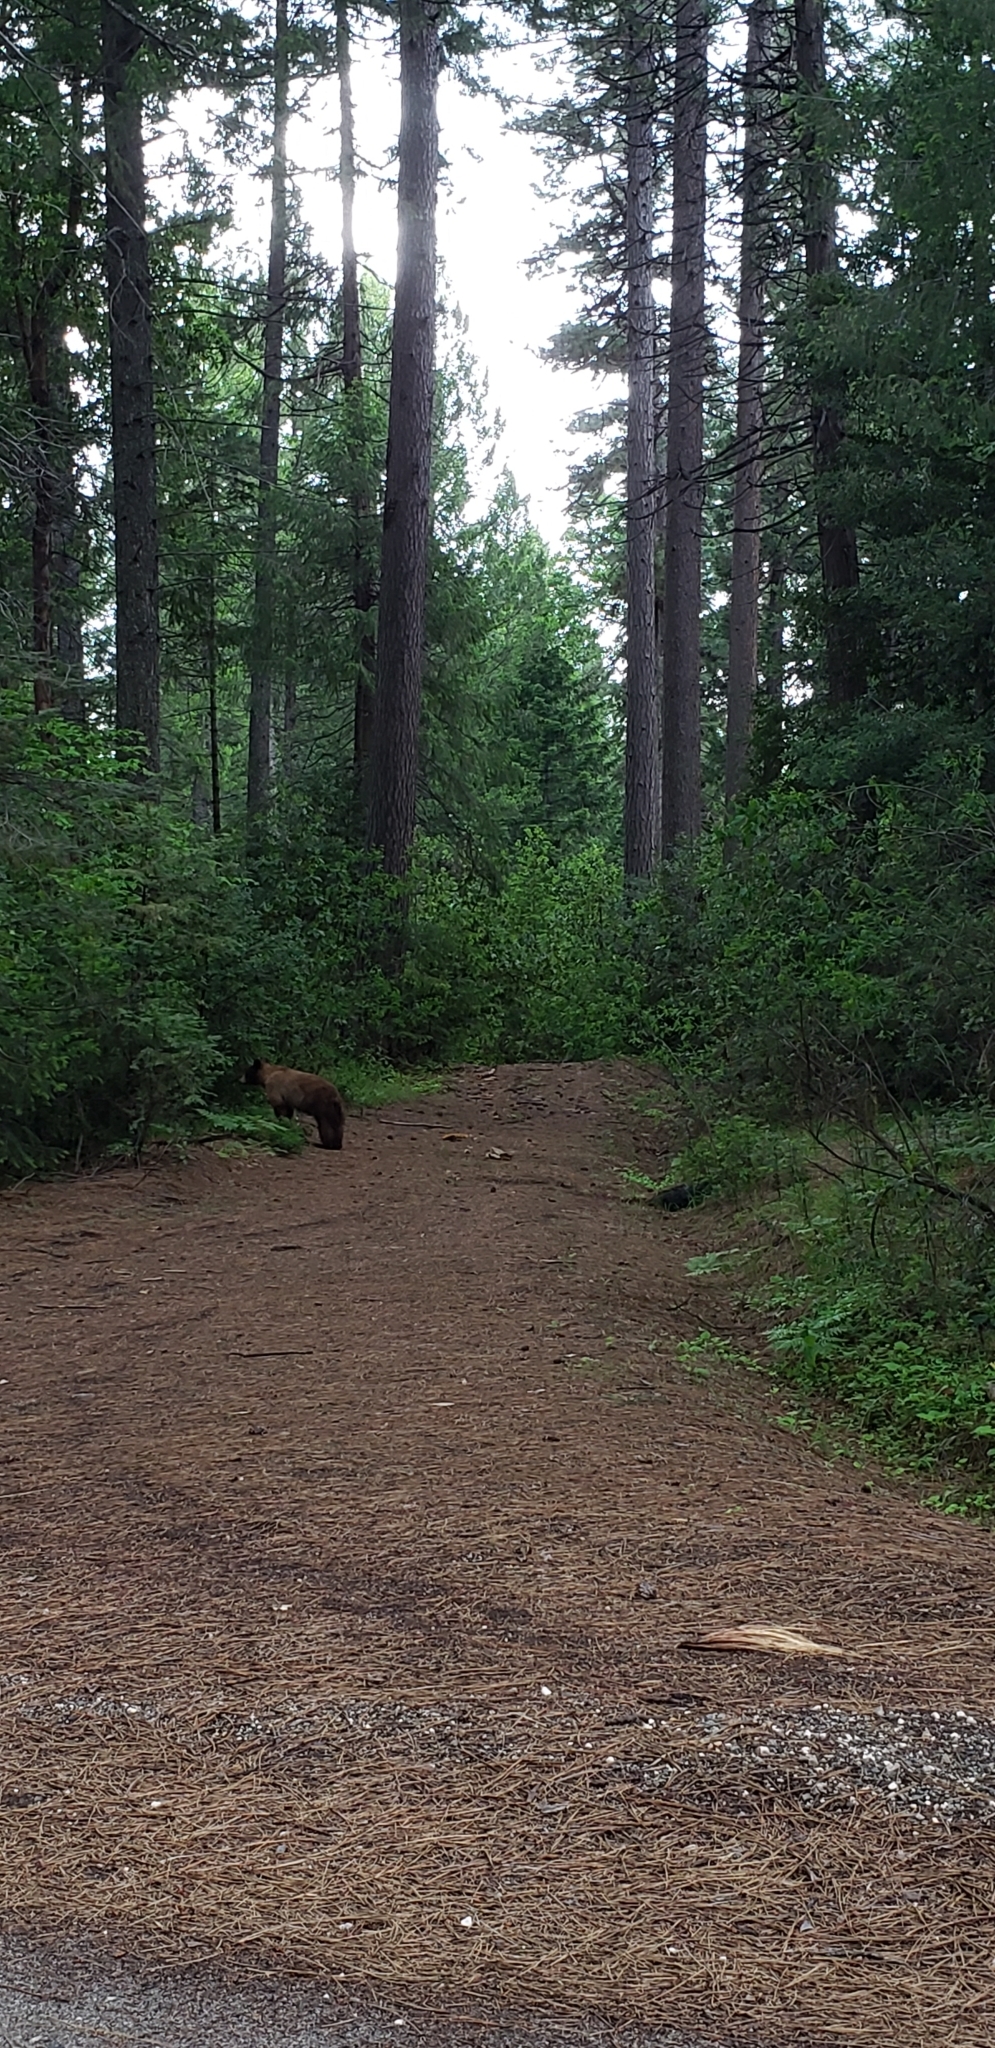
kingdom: Animalia
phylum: Chordata
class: Mammalia
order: Carnivora
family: Ursidae
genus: Ursus
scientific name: Ursus americanus
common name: American black bear
